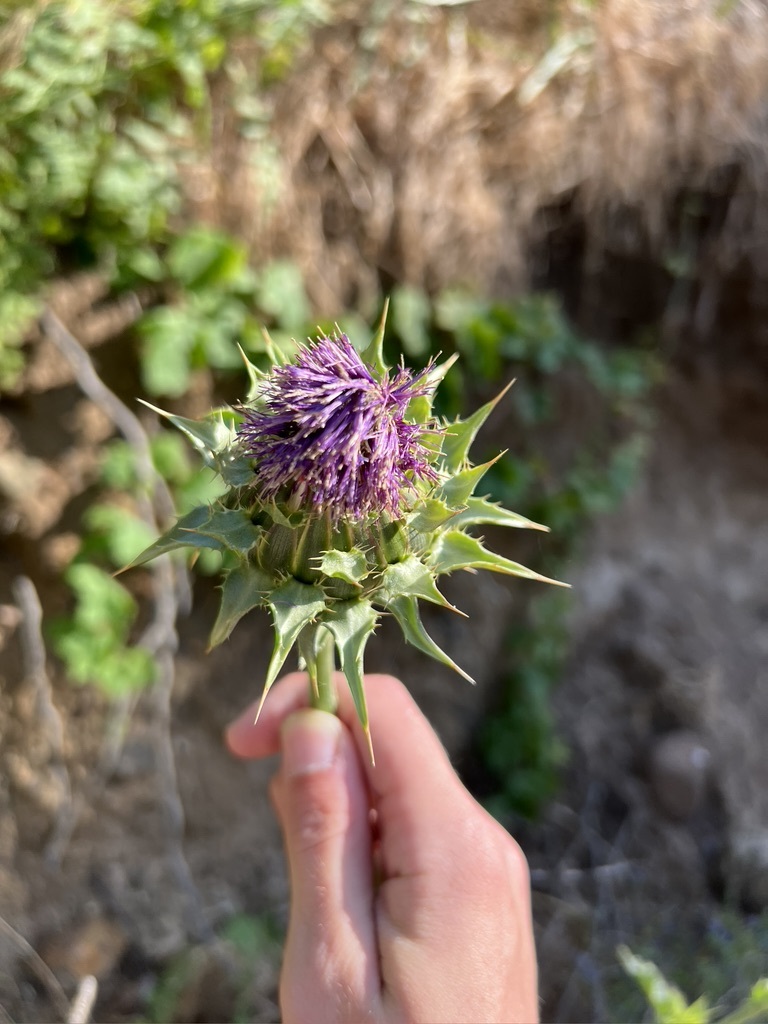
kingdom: Plantae
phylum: Tracheophyta
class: Magnoliopsida
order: Asterales
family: Asteraceae
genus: Silybum
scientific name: Silybum marianum
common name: Milk thistle
